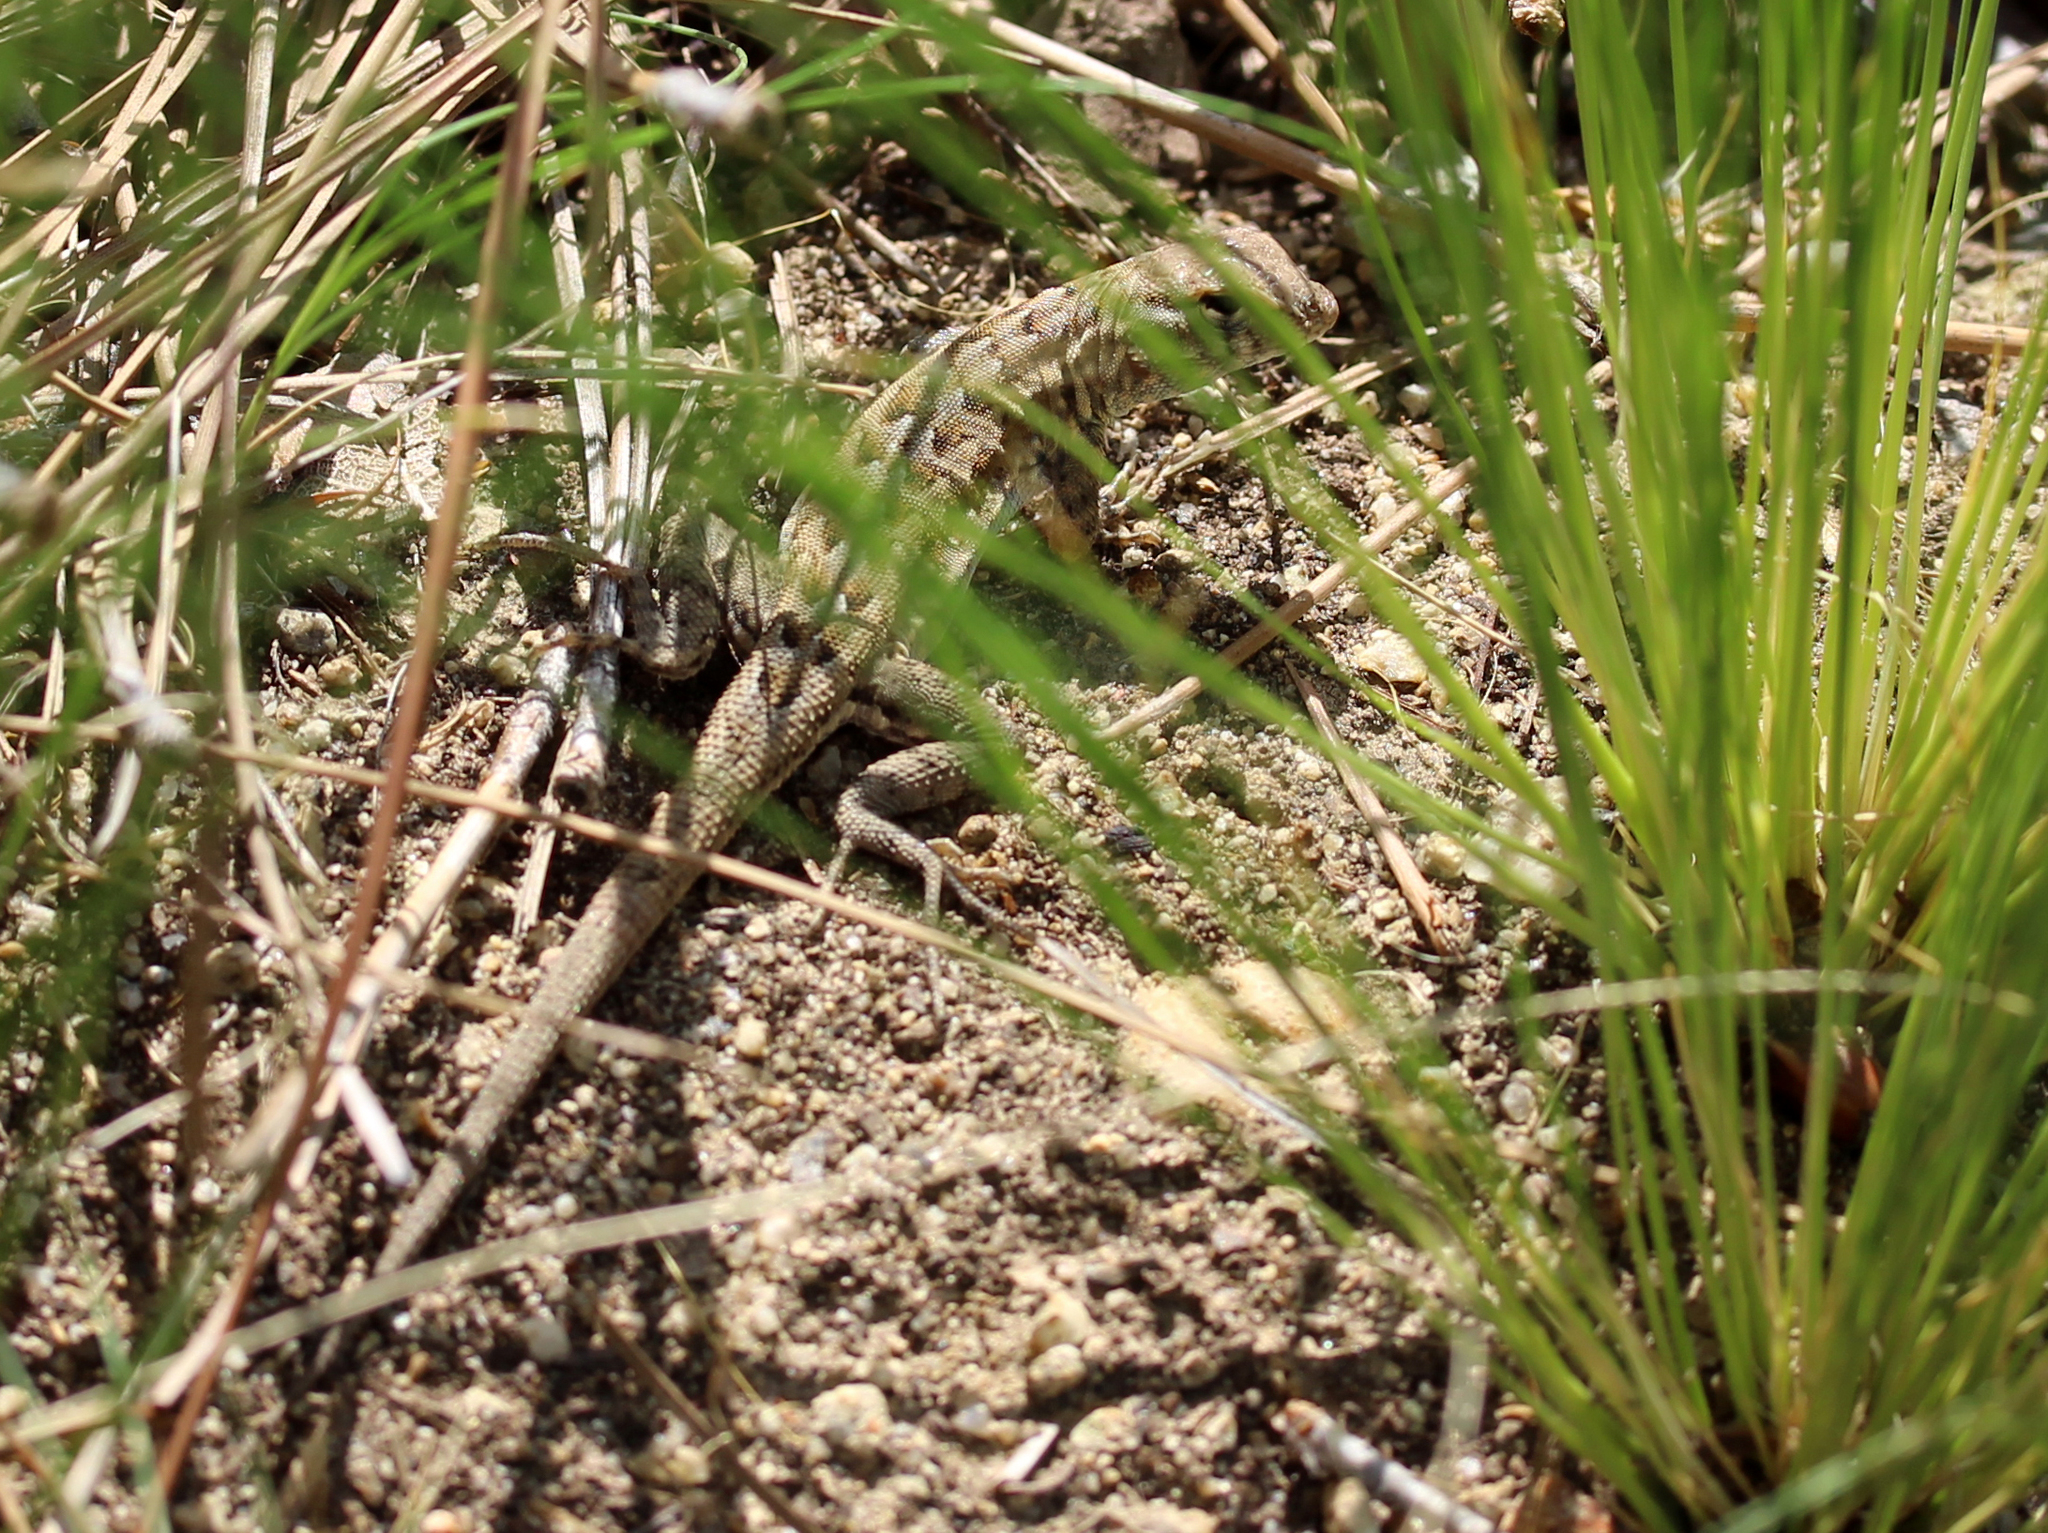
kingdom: Animalia
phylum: Chordata
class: Squamata
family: Phrynosomatidae
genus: Uta
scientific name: Uta stansburiana
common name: Side-blotched lizard
